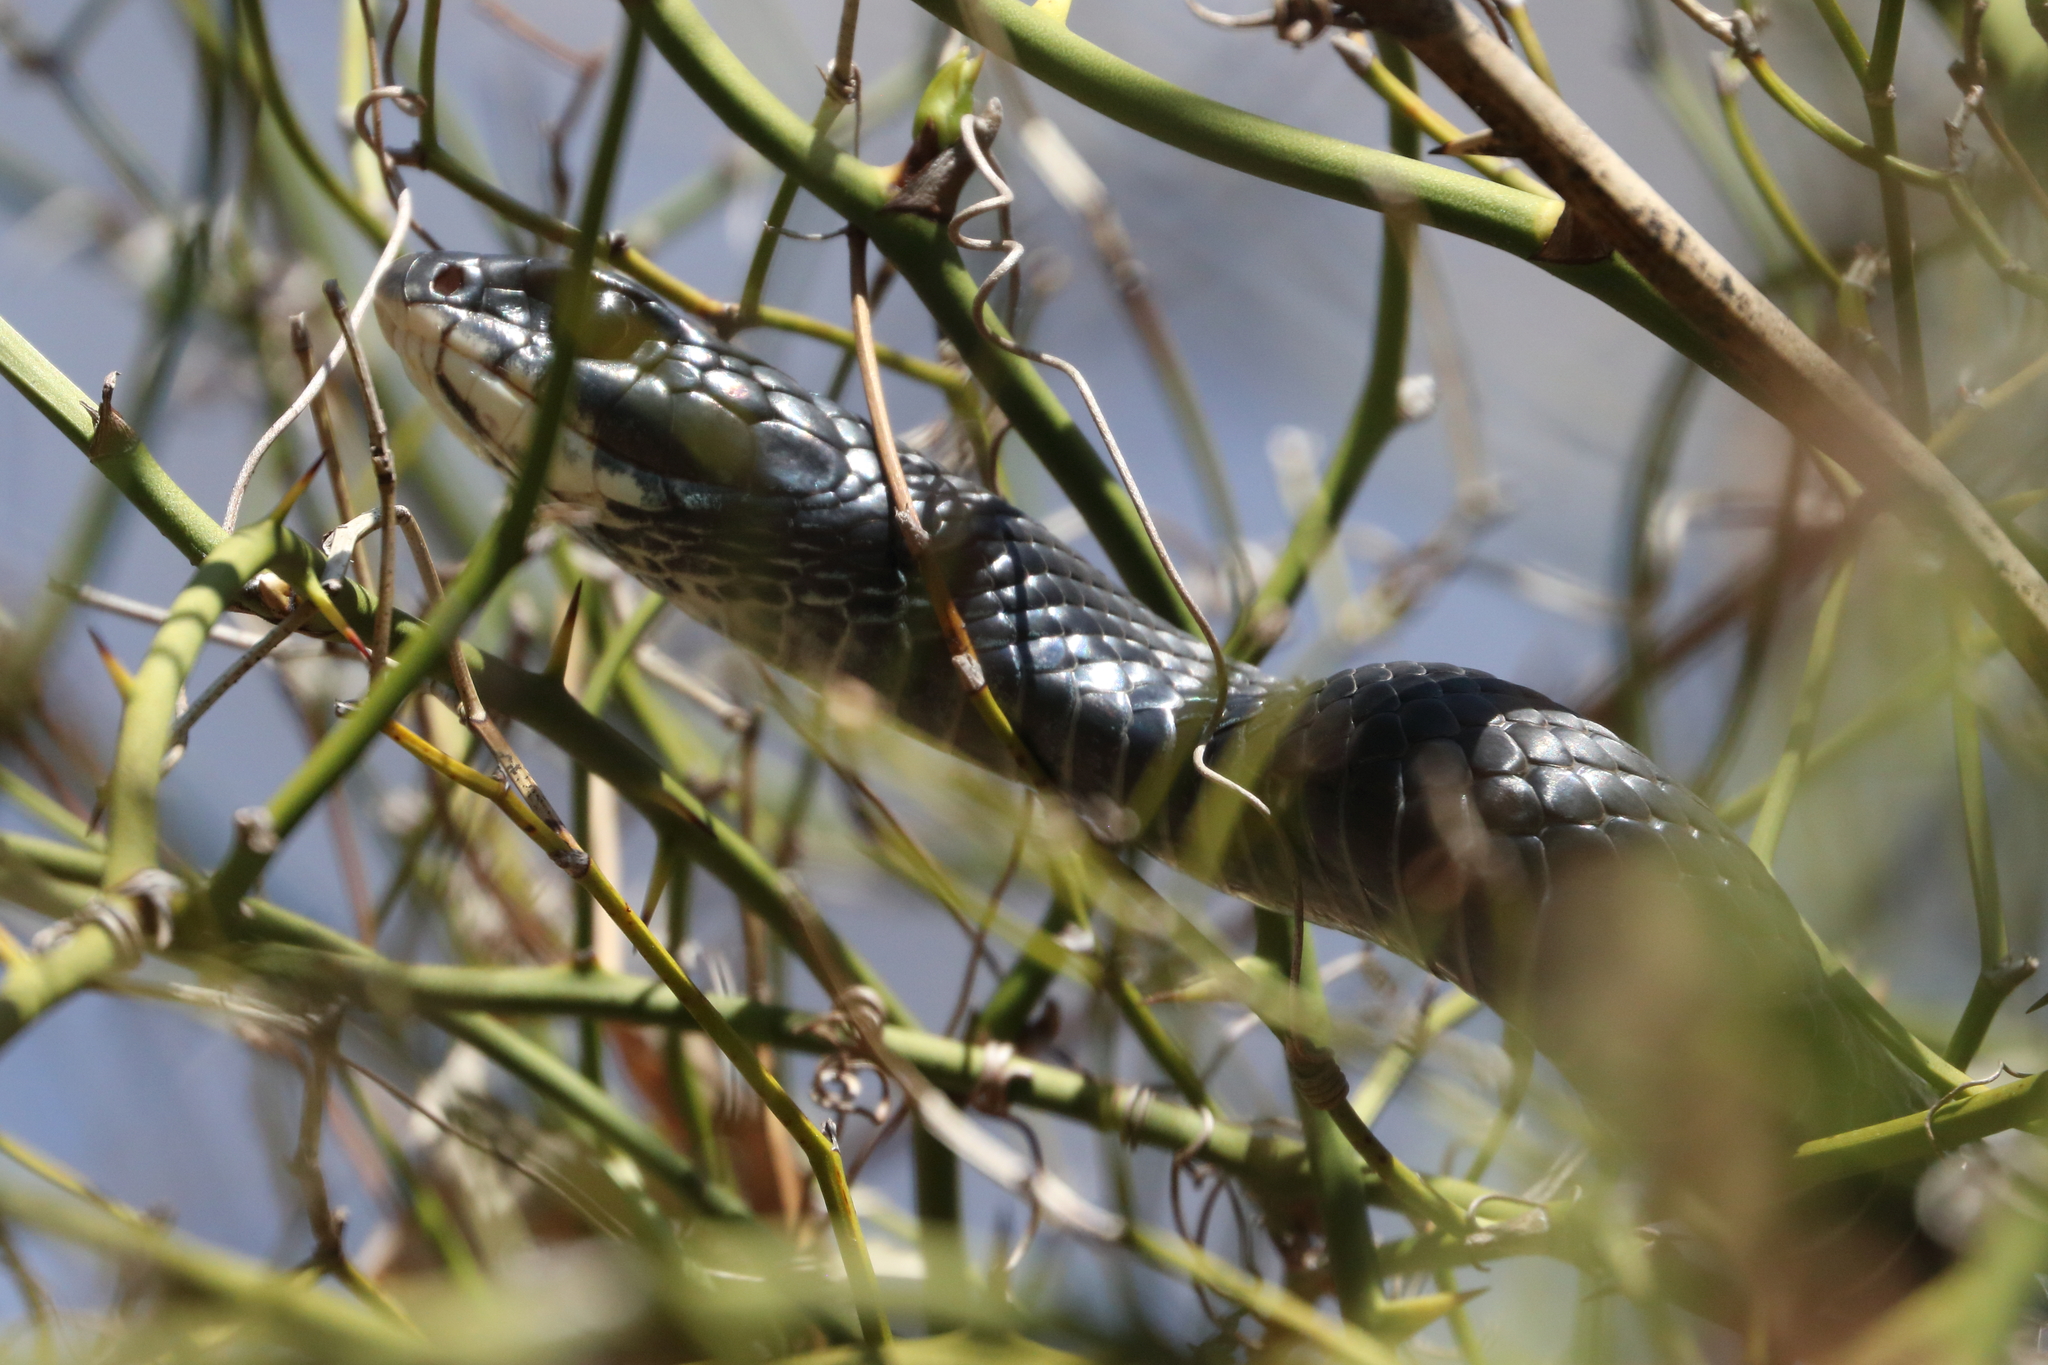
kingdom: Animalia
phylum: Chordata
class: Squamata
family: Colubridae
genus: Coluber
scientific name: Coluber constrictor
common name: Eastern racer
